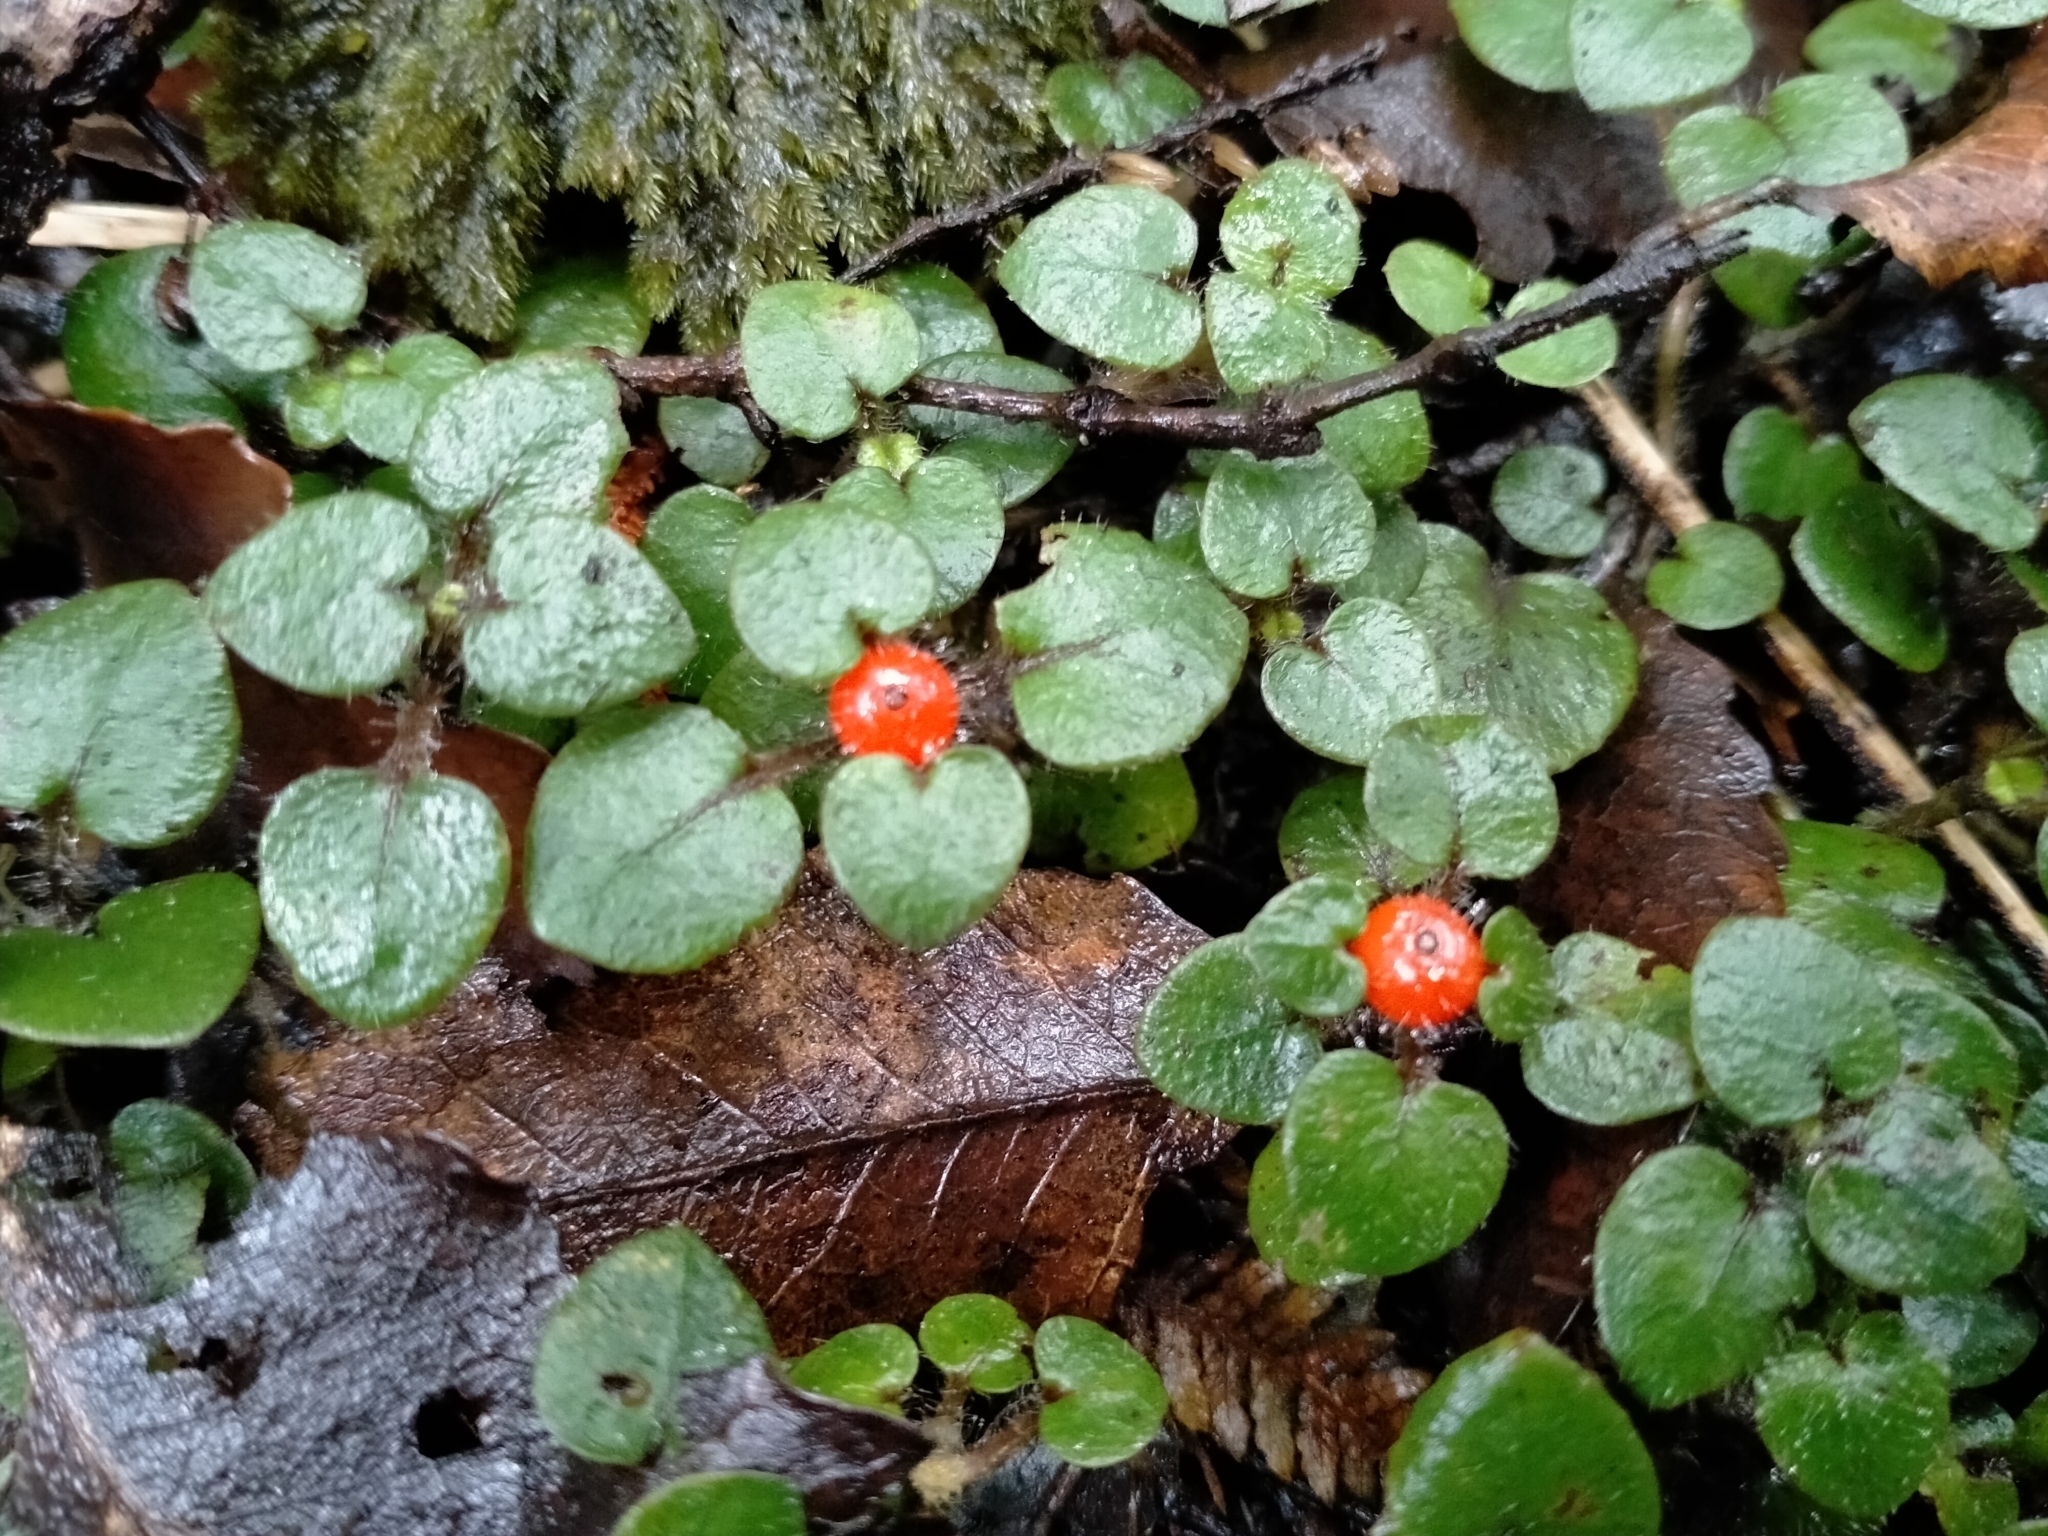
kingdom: Plantae
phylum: Tracheophyta
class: Magnoliopsida
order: Gentianales
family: Rubiaceae
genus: Nertera
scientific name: Nertera villosa
